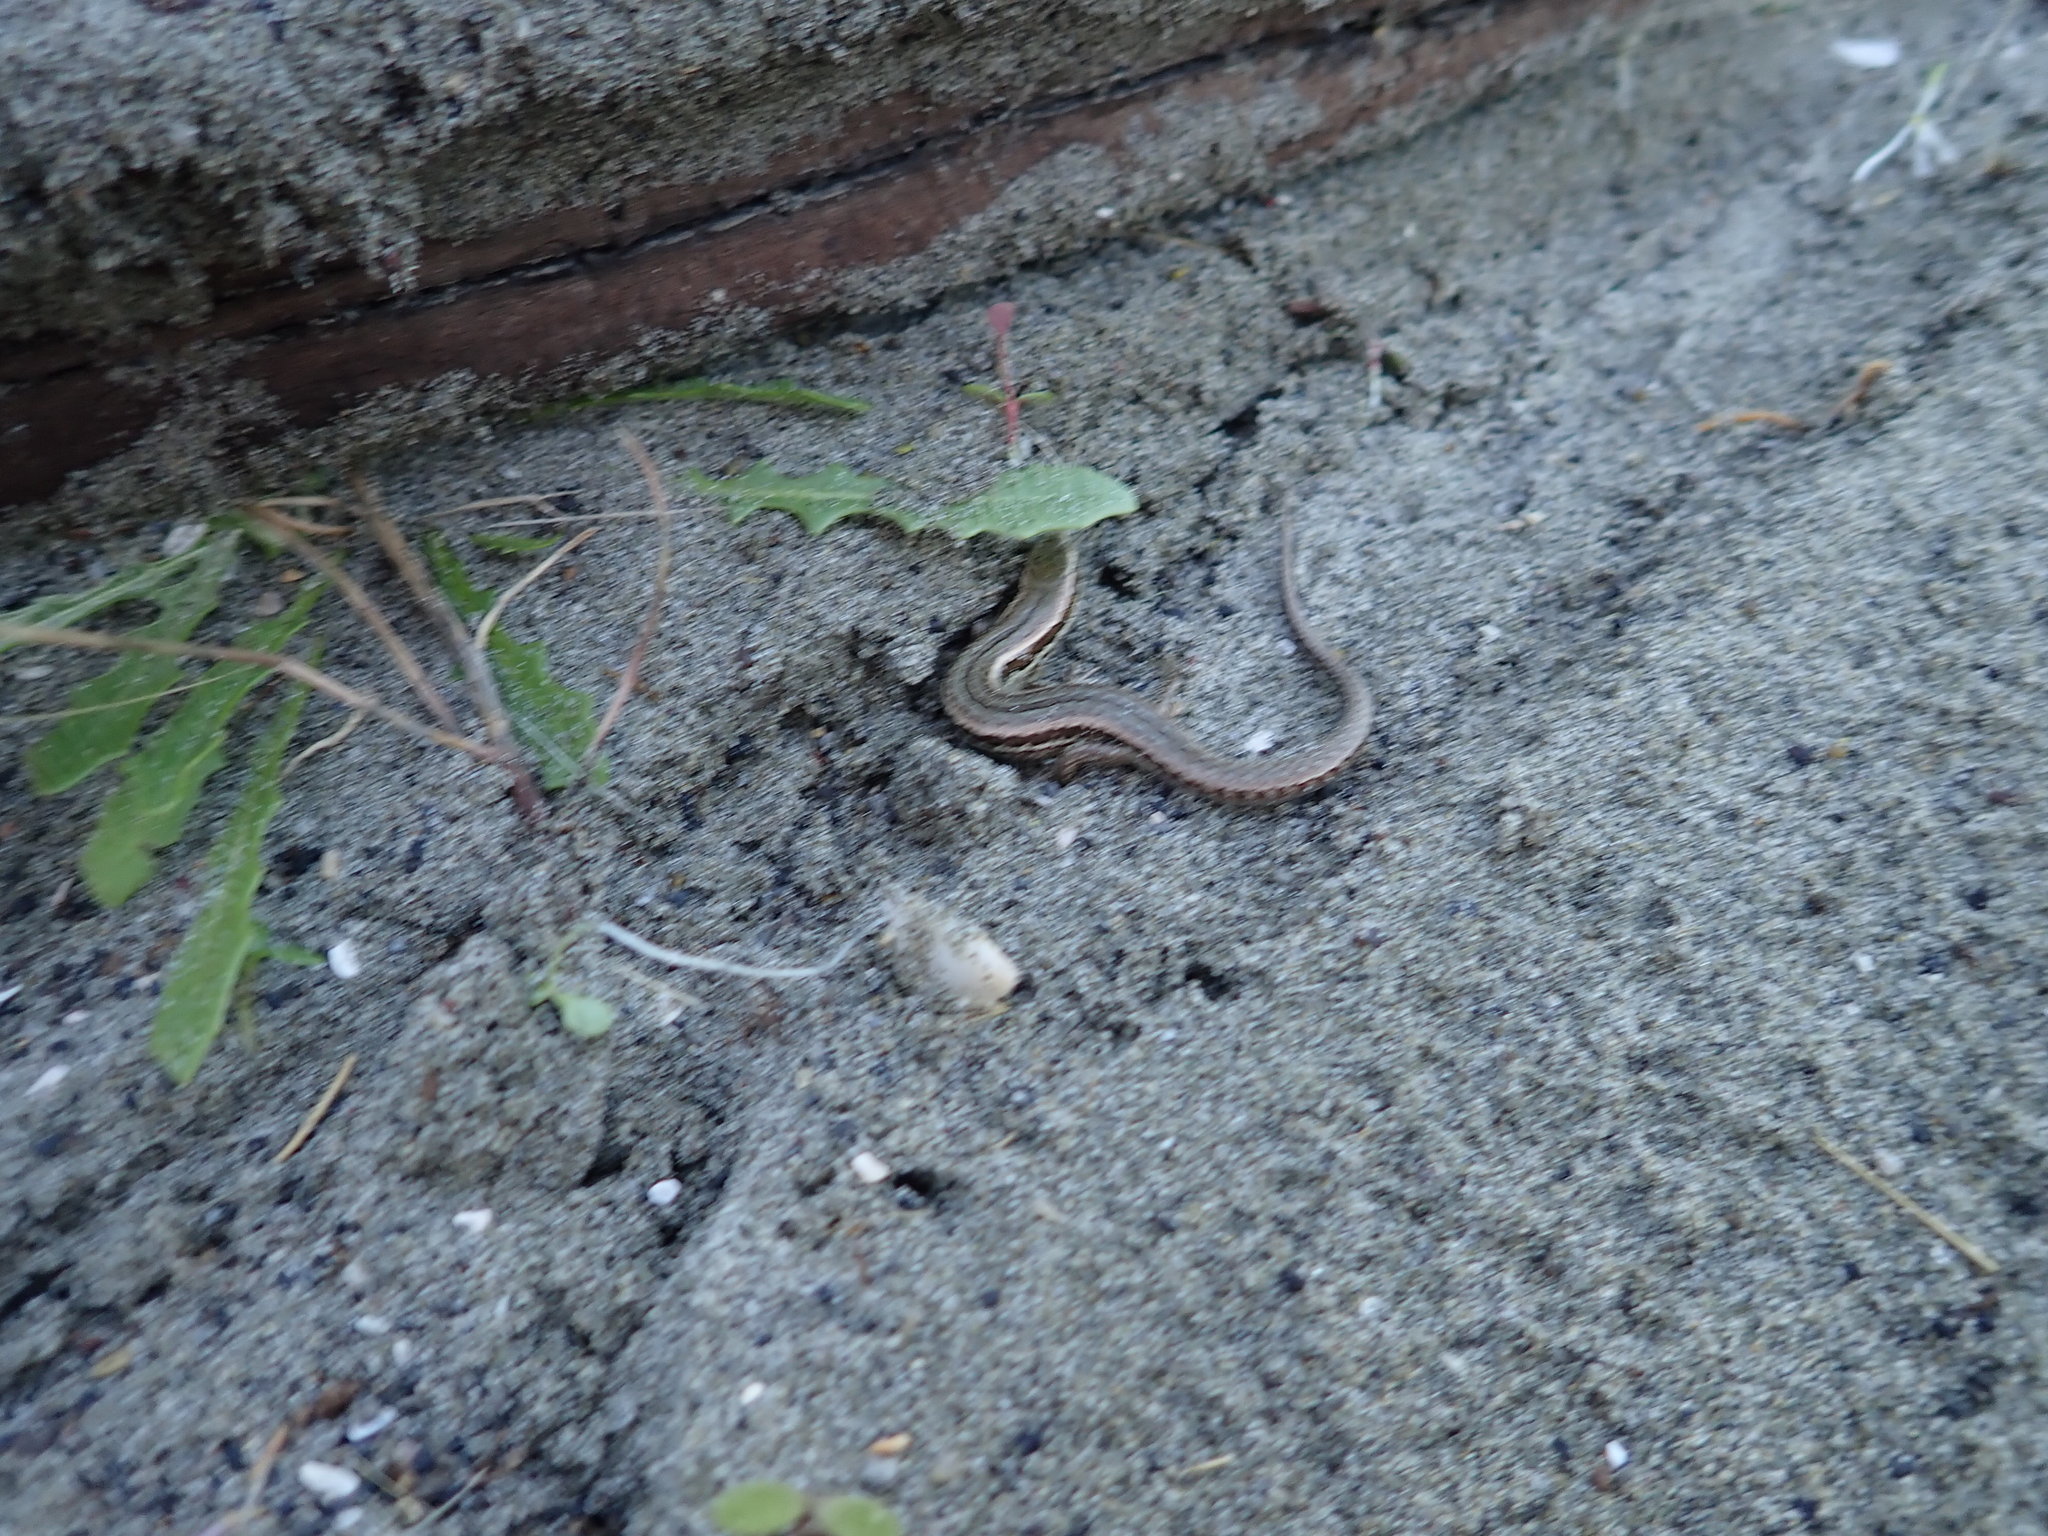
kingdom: Animalia
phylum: Chordata
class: Squamata
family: Scincidae
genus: Oligosoma
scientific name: Oligosoma polychroma
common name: Common new zealand skink
